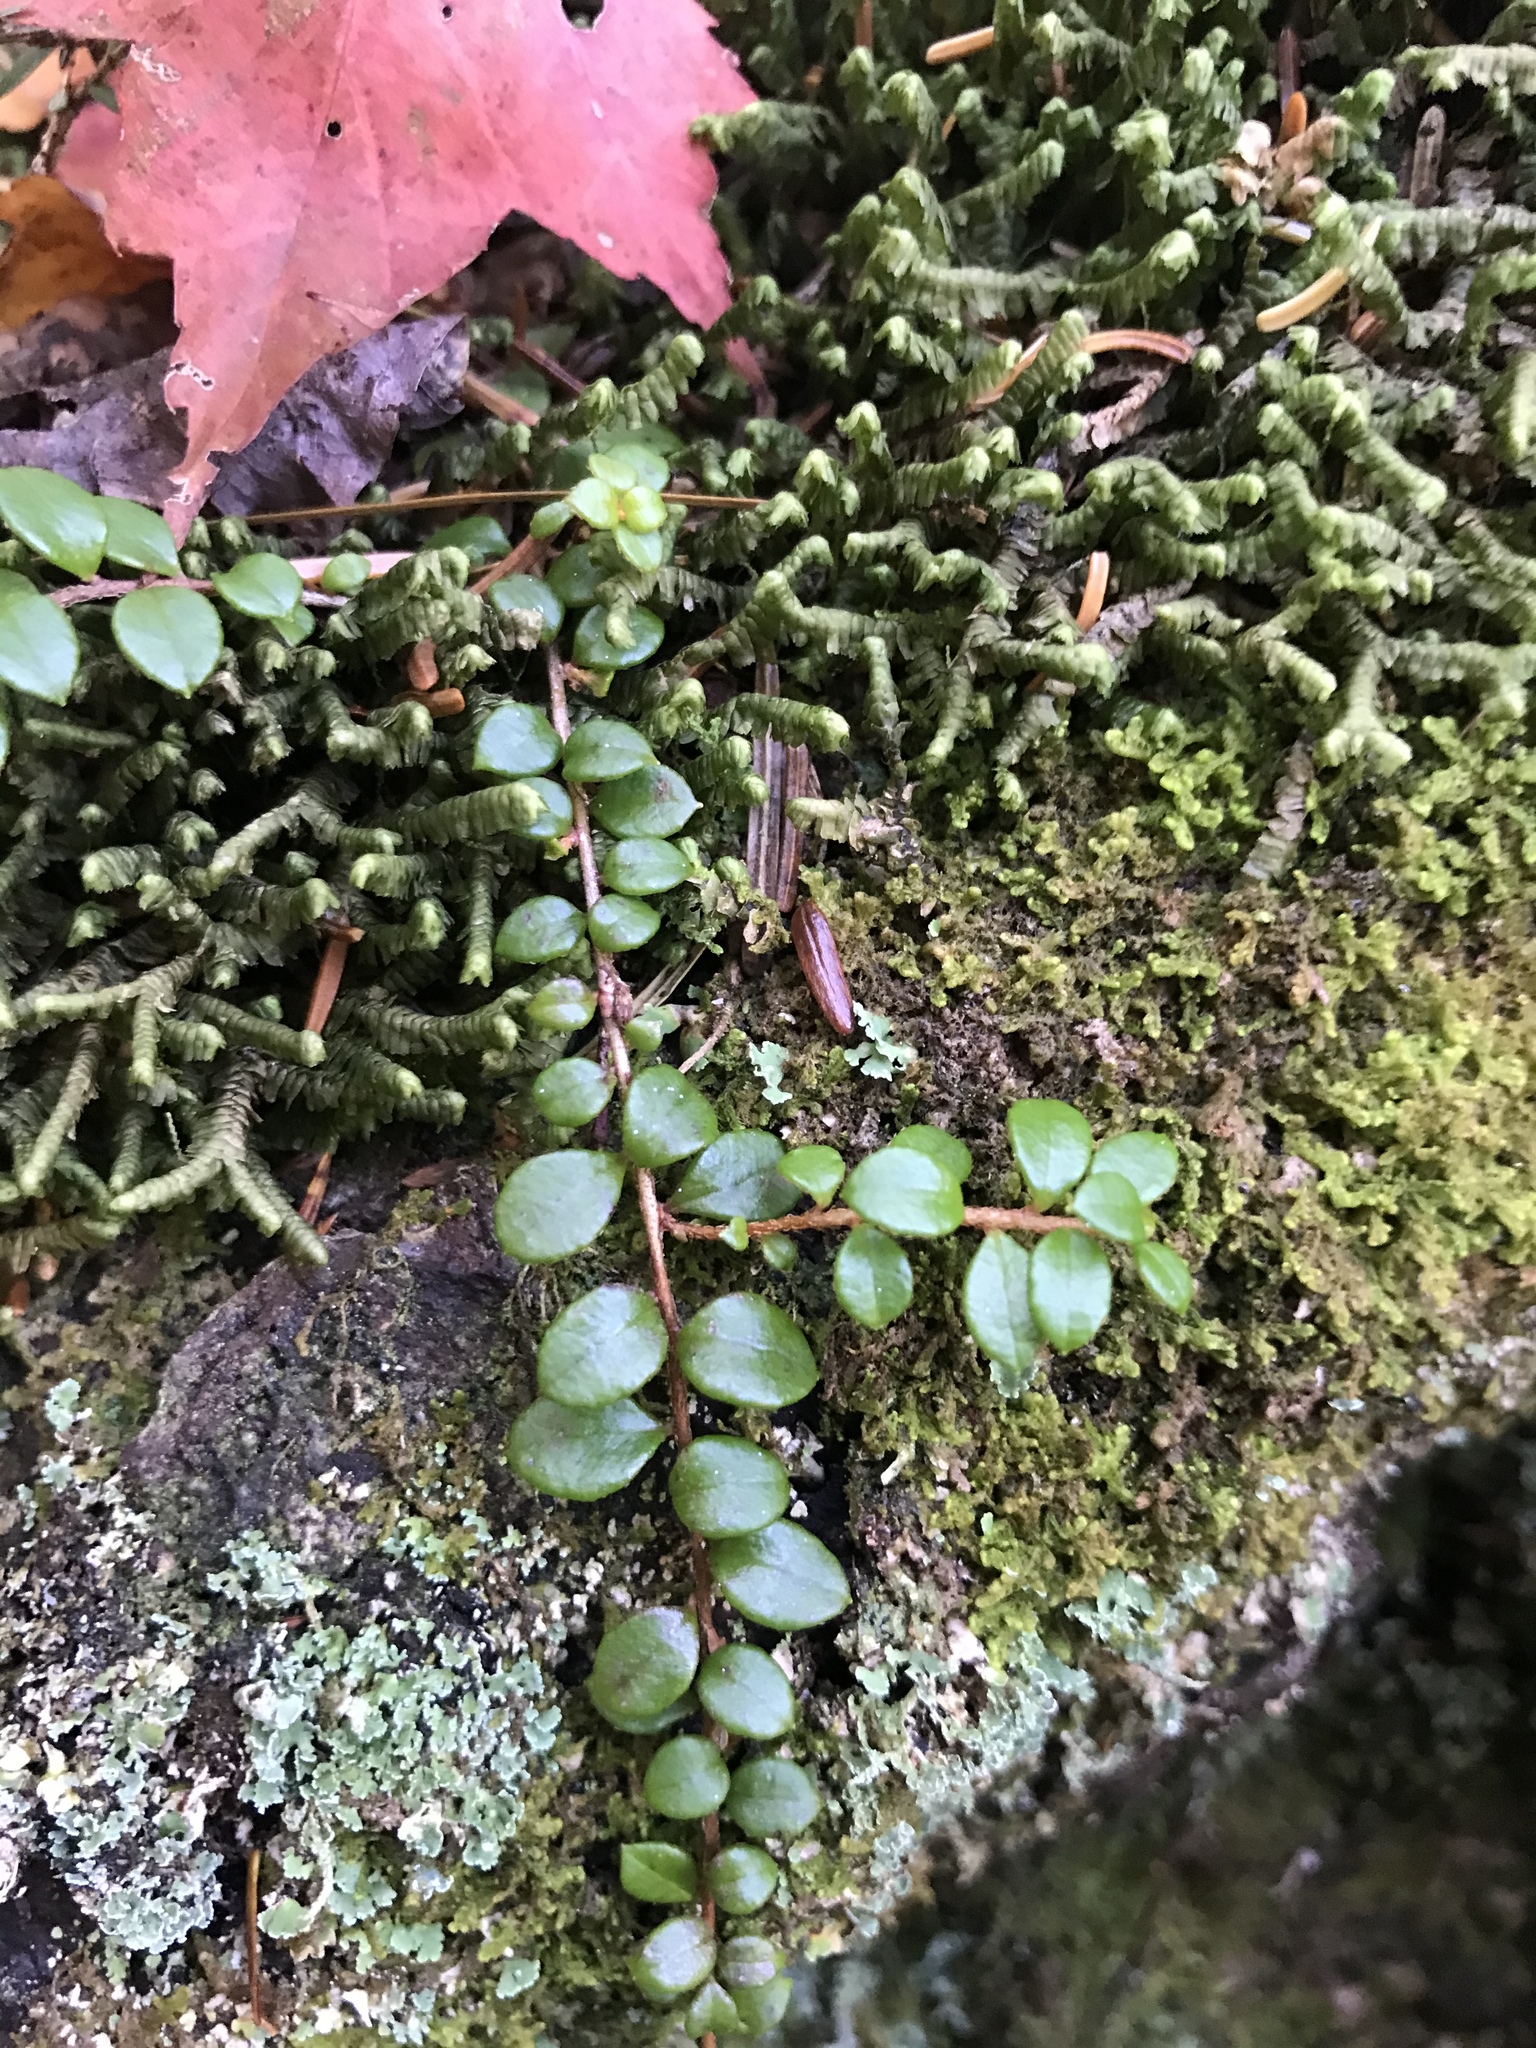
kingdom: Plantae
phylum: Tracheophyta
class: Magnoliopsida
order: Ericales
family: Ericaceae
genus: Gaultheria
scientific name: Gaultheria hispidula
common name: Cancer wintergreen
